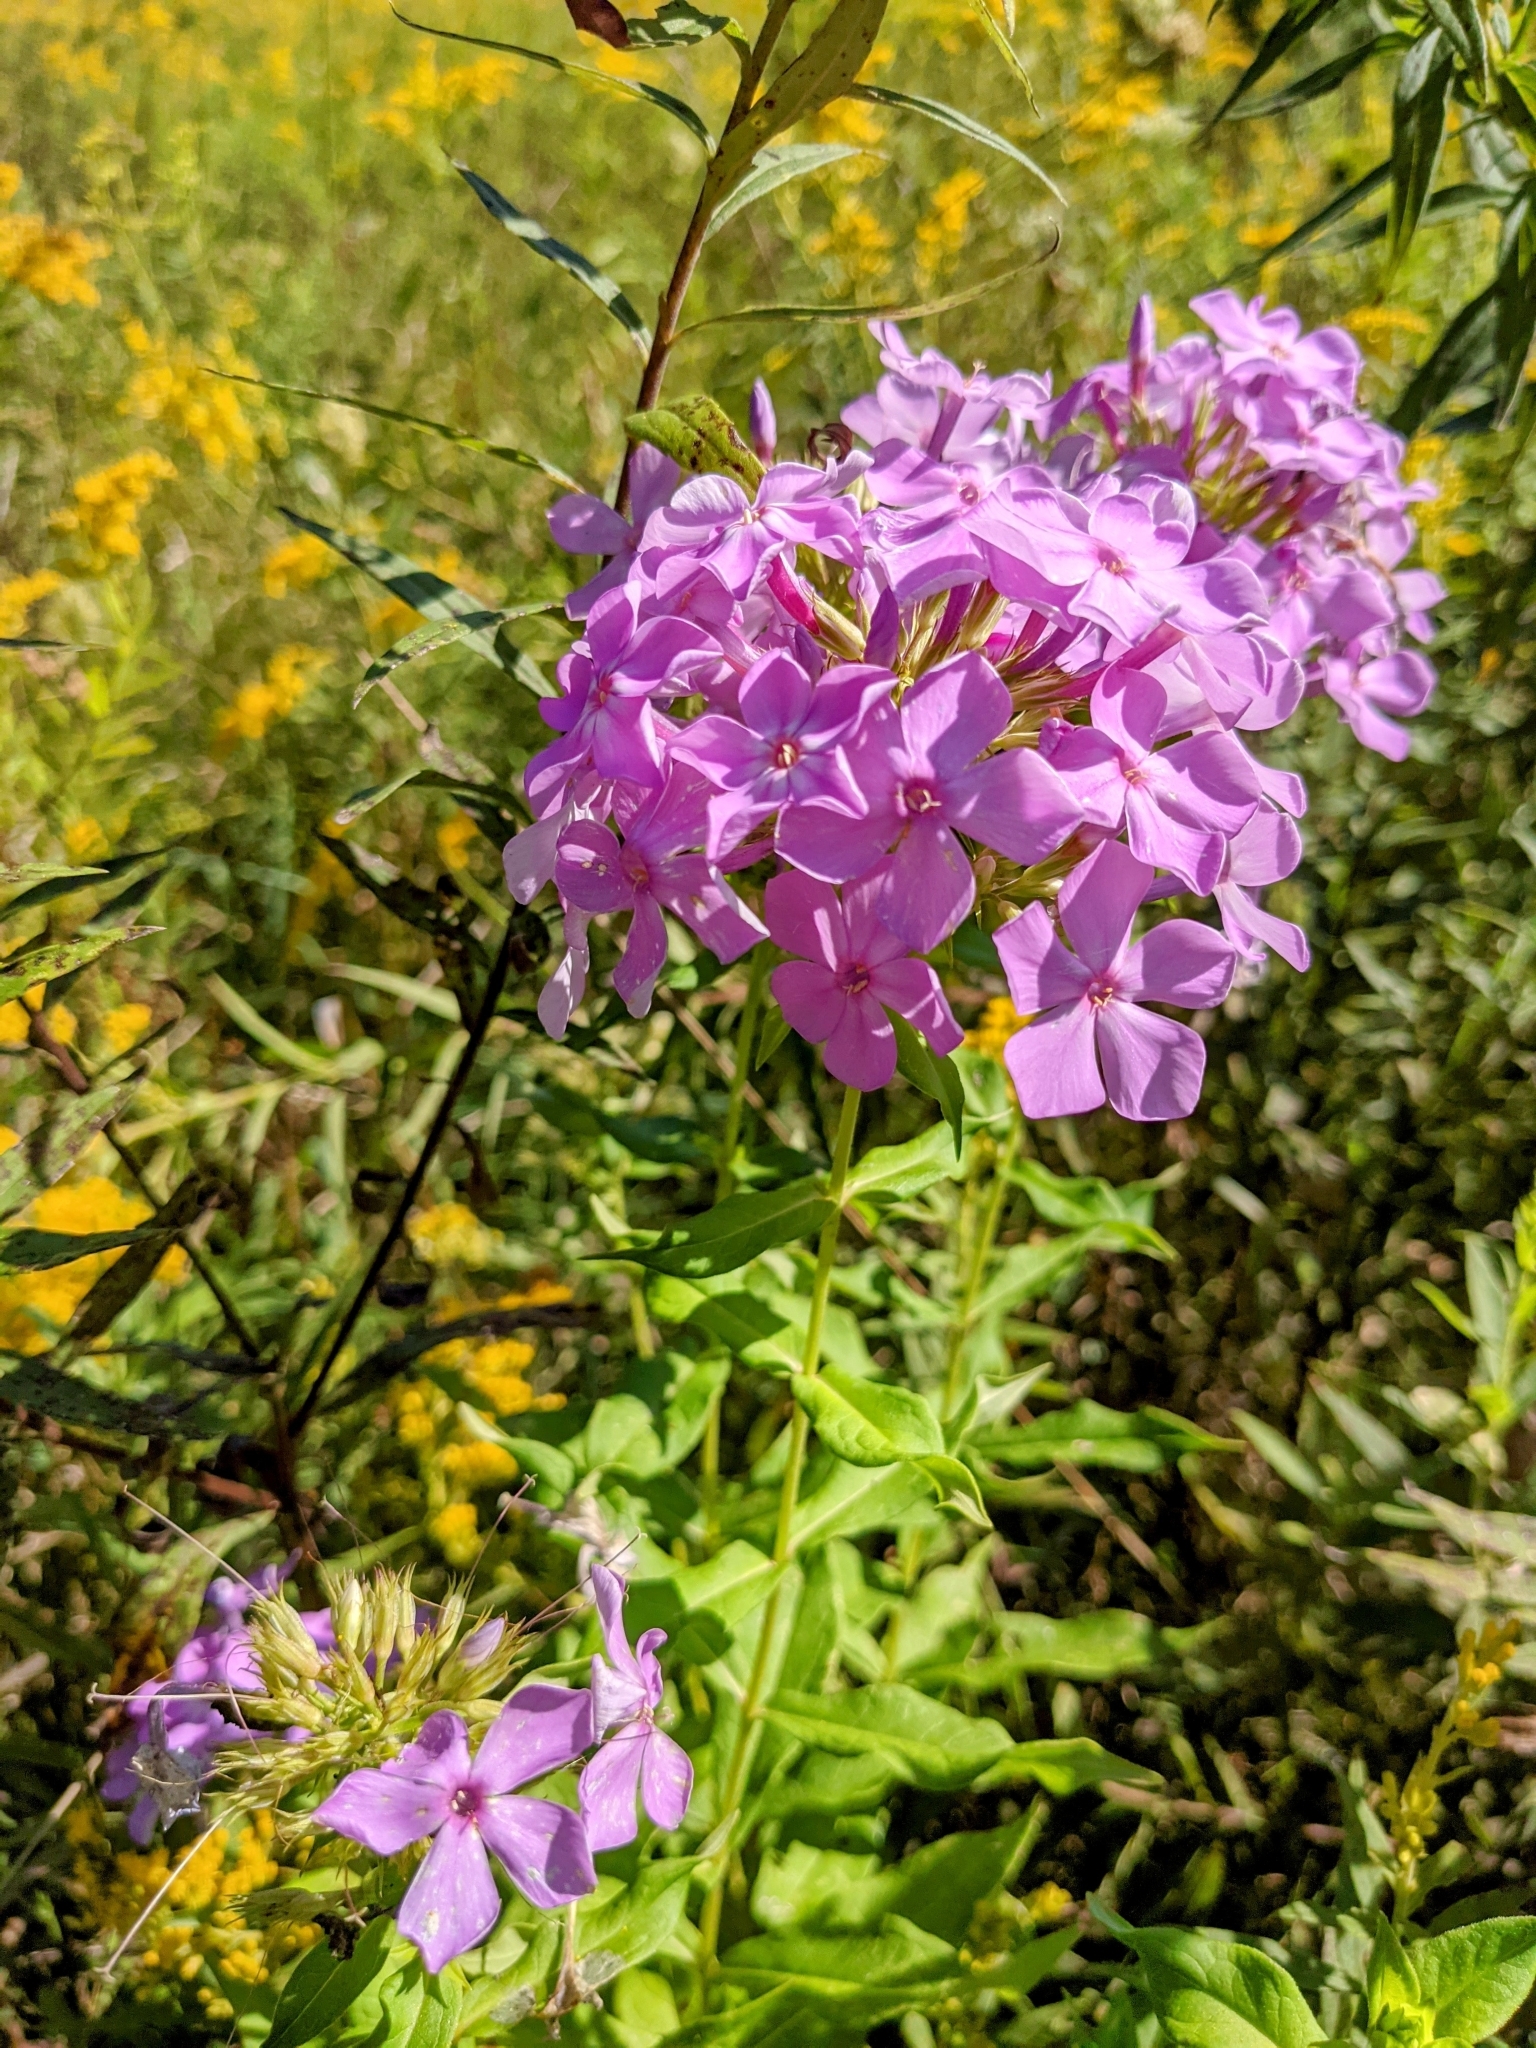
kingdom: Plantae
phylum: Tracheophyta
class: Magnoliopsida
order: Ericales
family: Polemoniaceae
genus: Phlox
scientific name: Phlox paniculata
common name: Fall phlox
